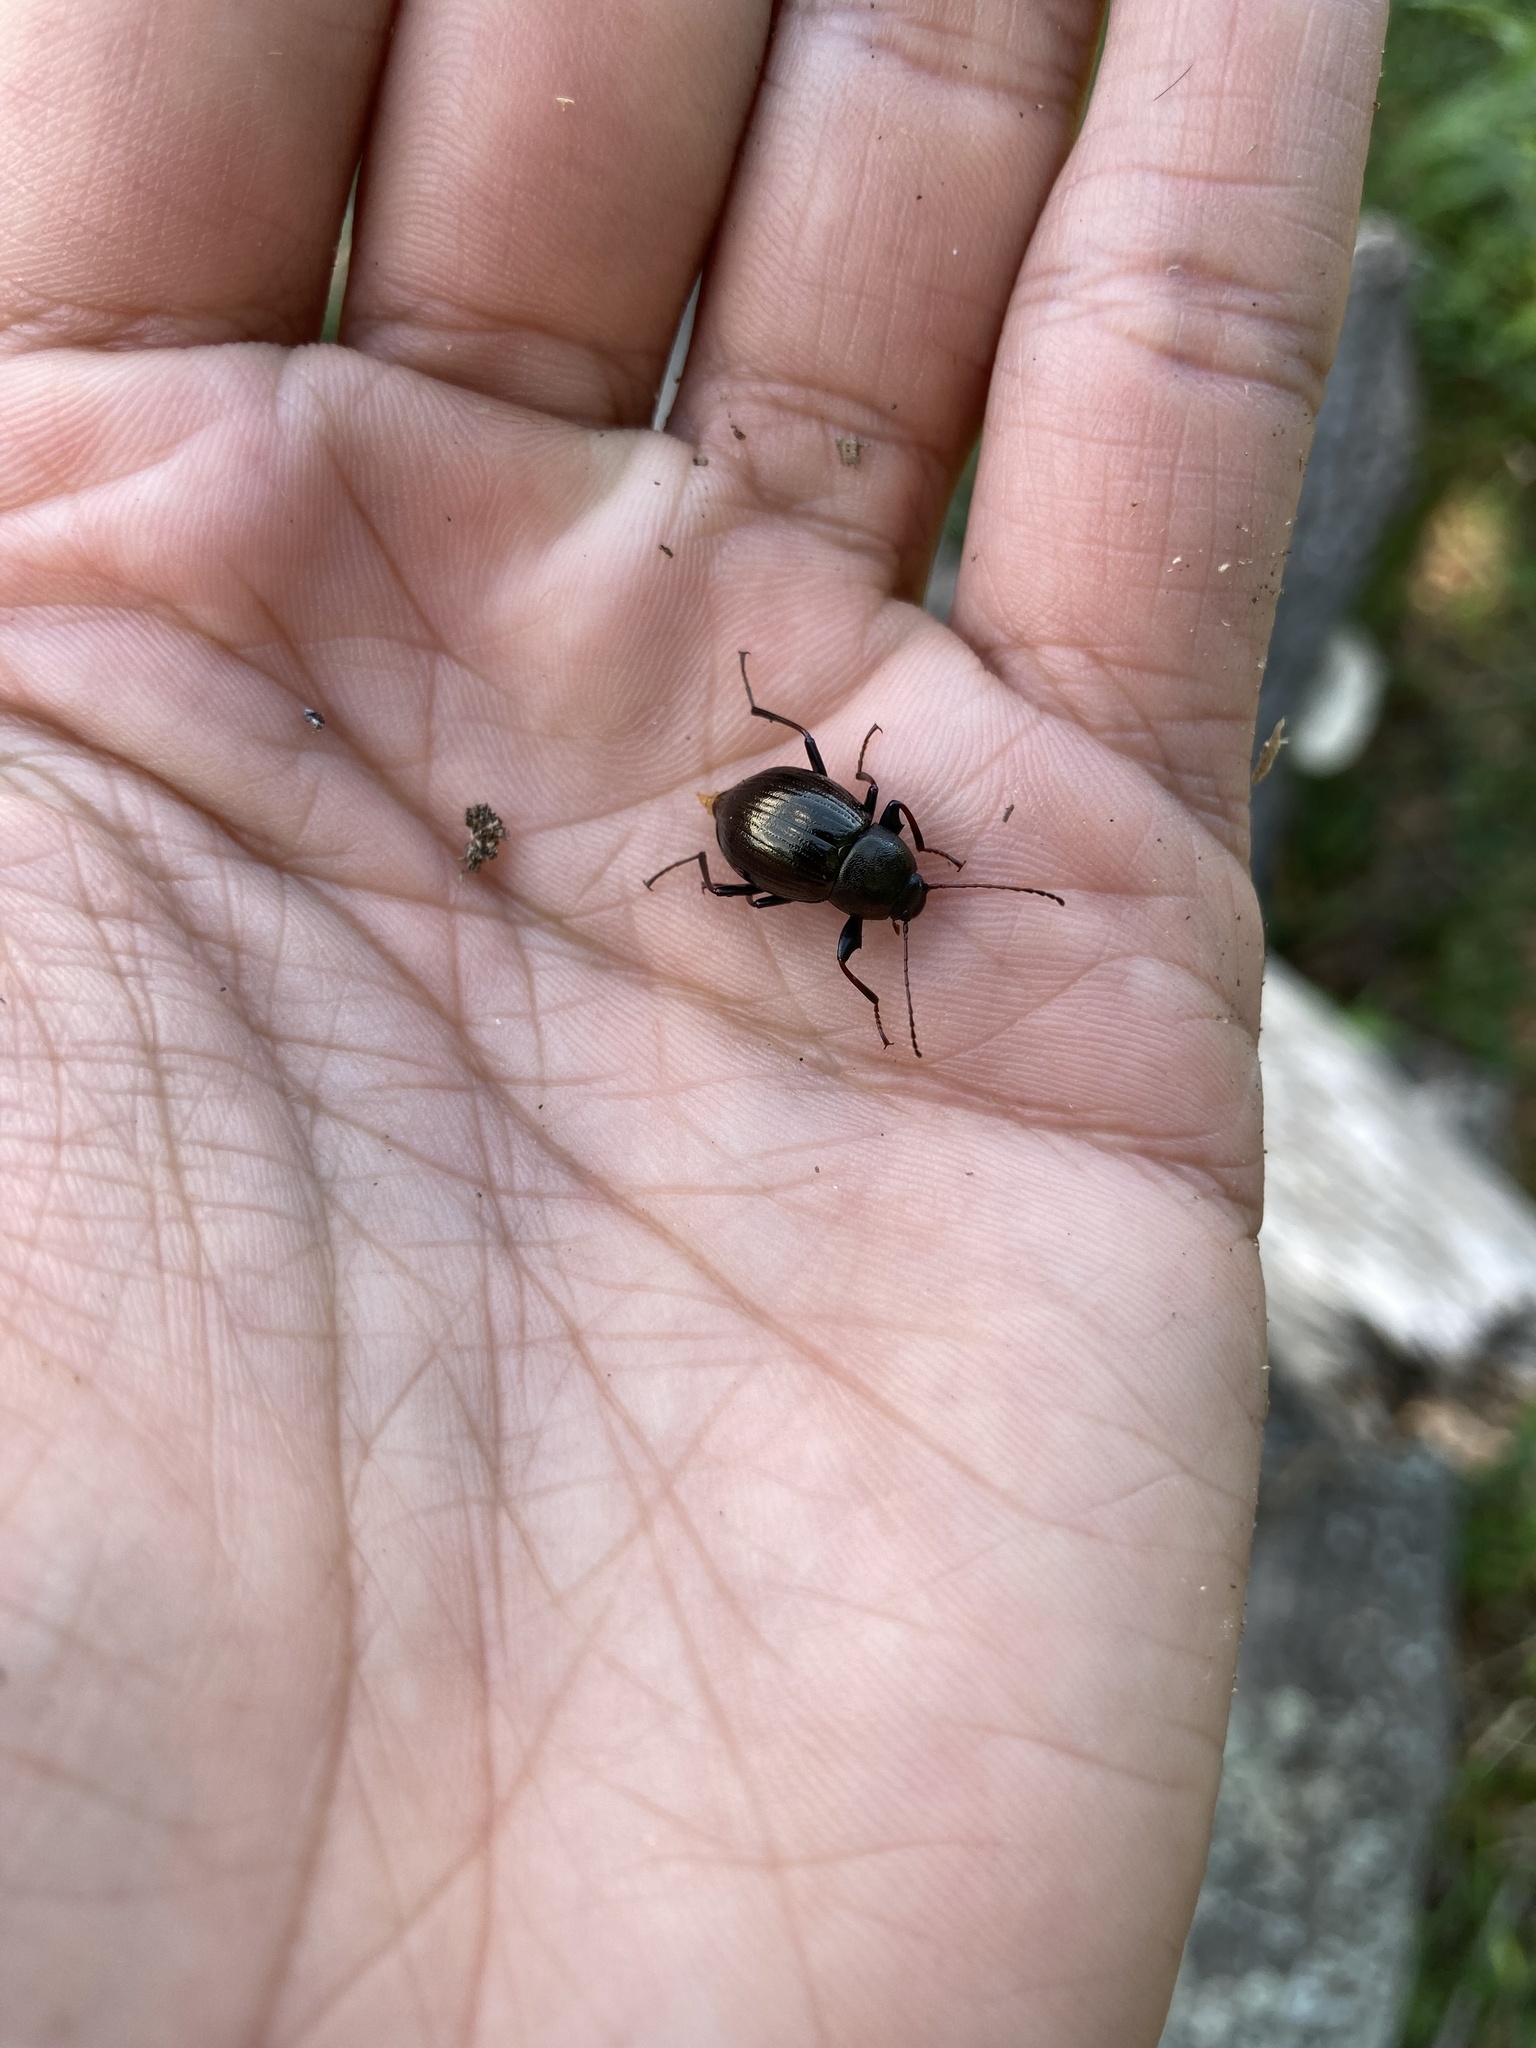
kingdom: Animalia
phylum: Arthropoda
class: Insecta
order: Coleoptera
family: Tenebrionidae
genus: Meracantha
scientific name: Meracantha contracta
